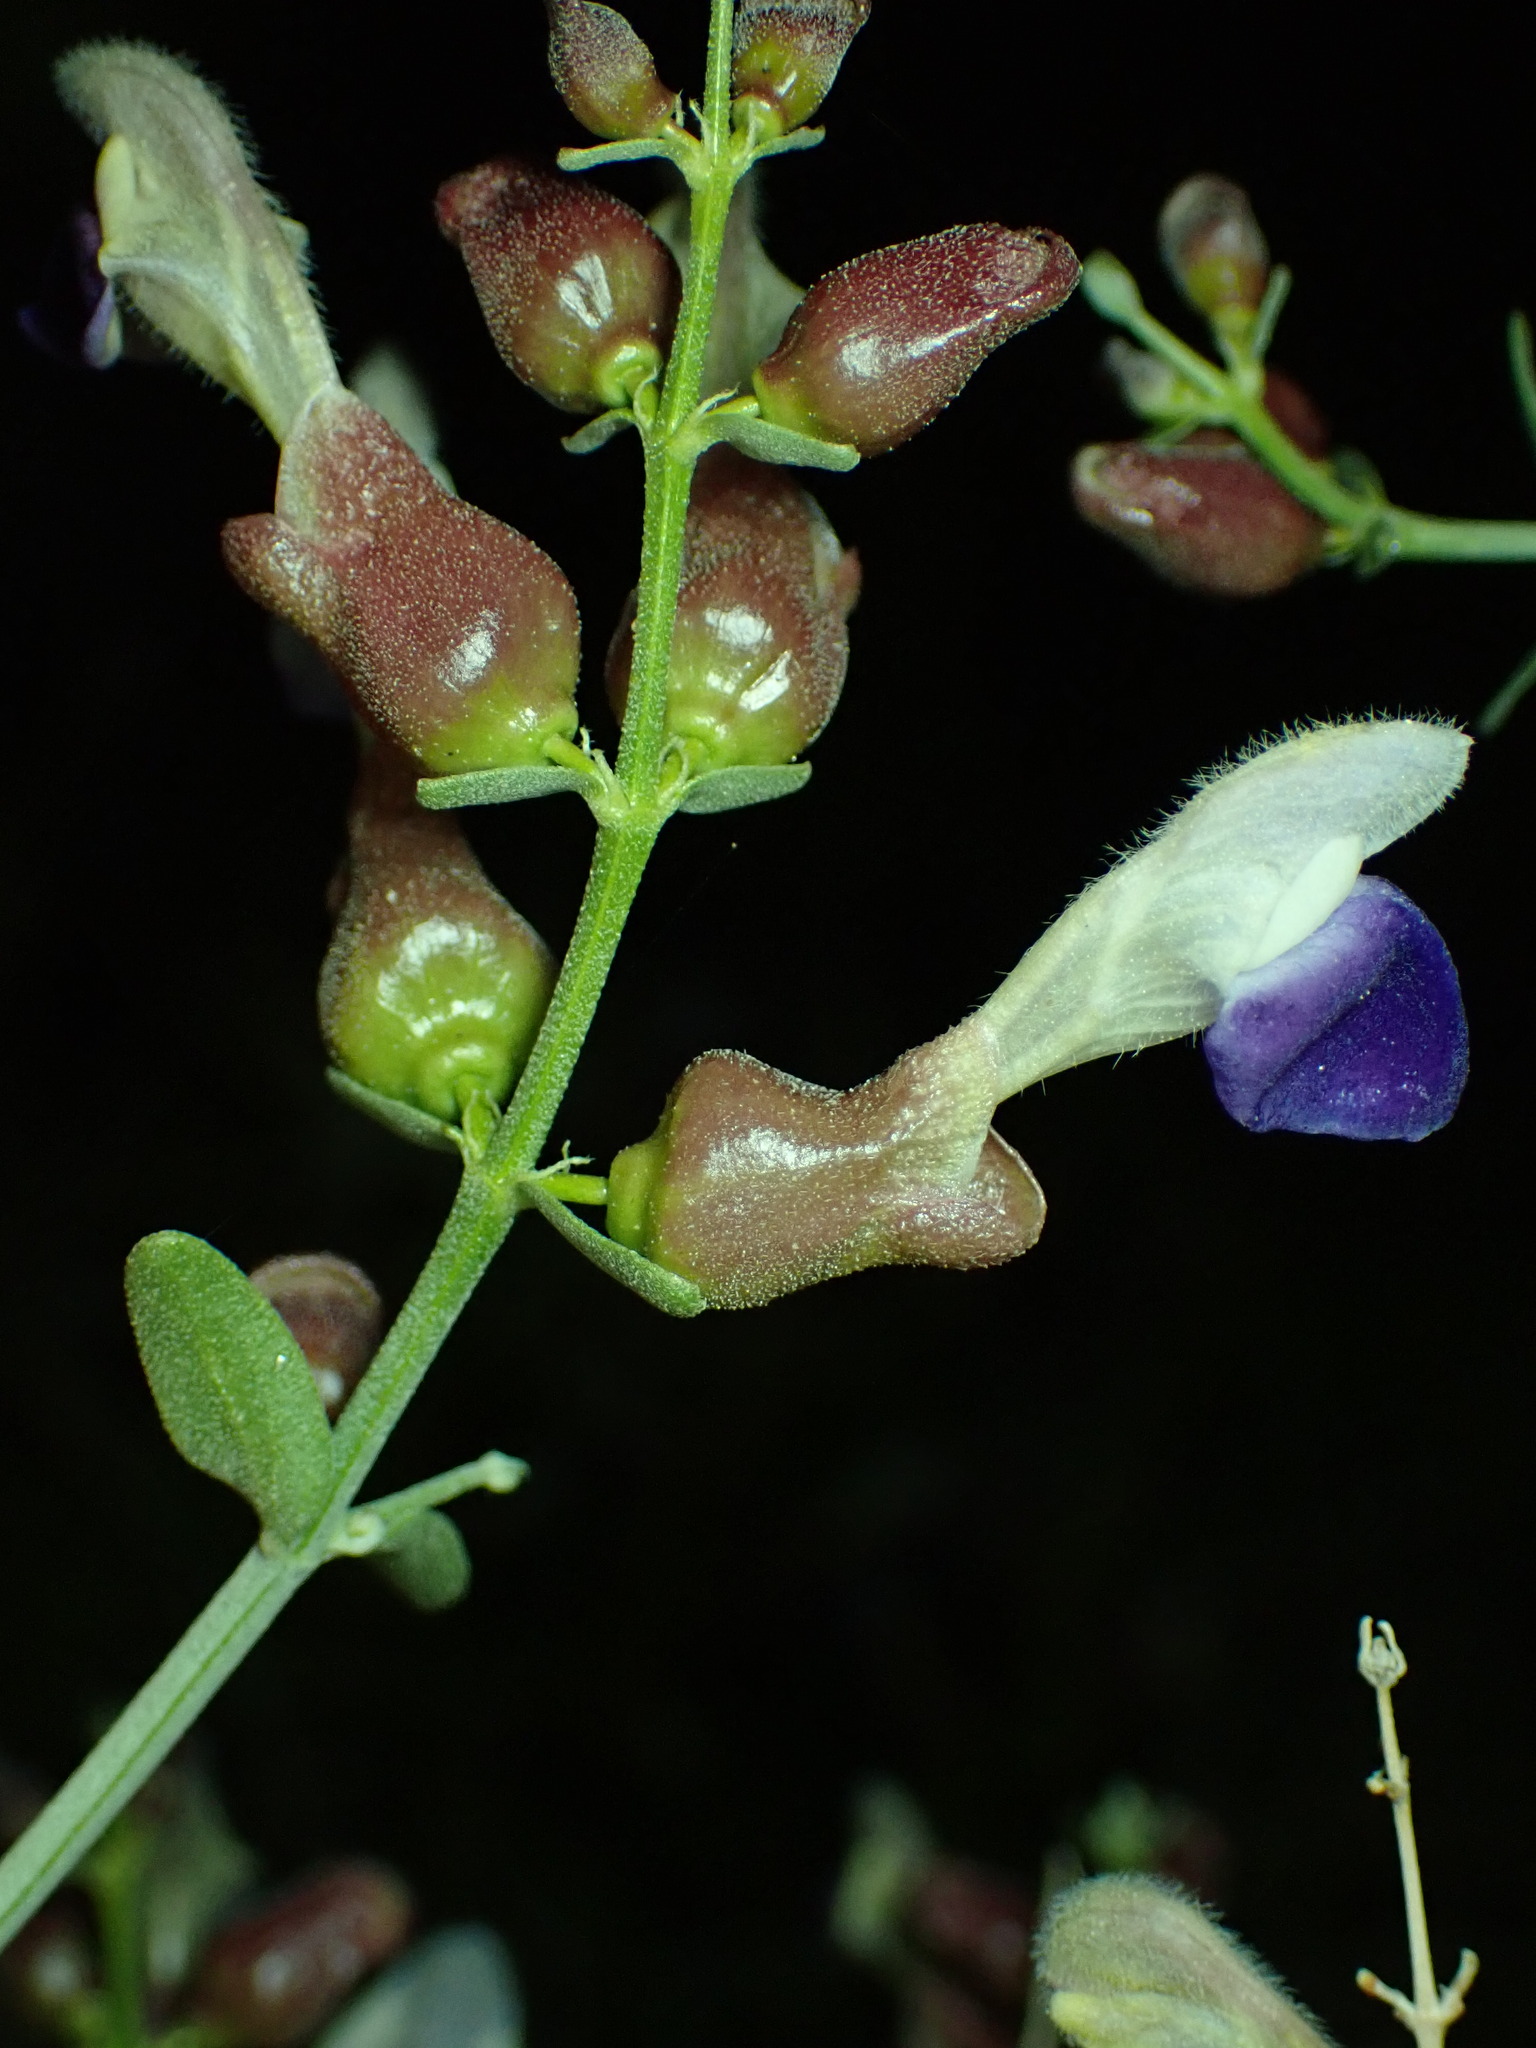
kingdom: Plantae
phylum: Tracheophyta
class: Magnoliopsida
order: Lamiales
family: Lamiaceae
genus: Scutellaria
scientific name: Scutellaria mexicana
